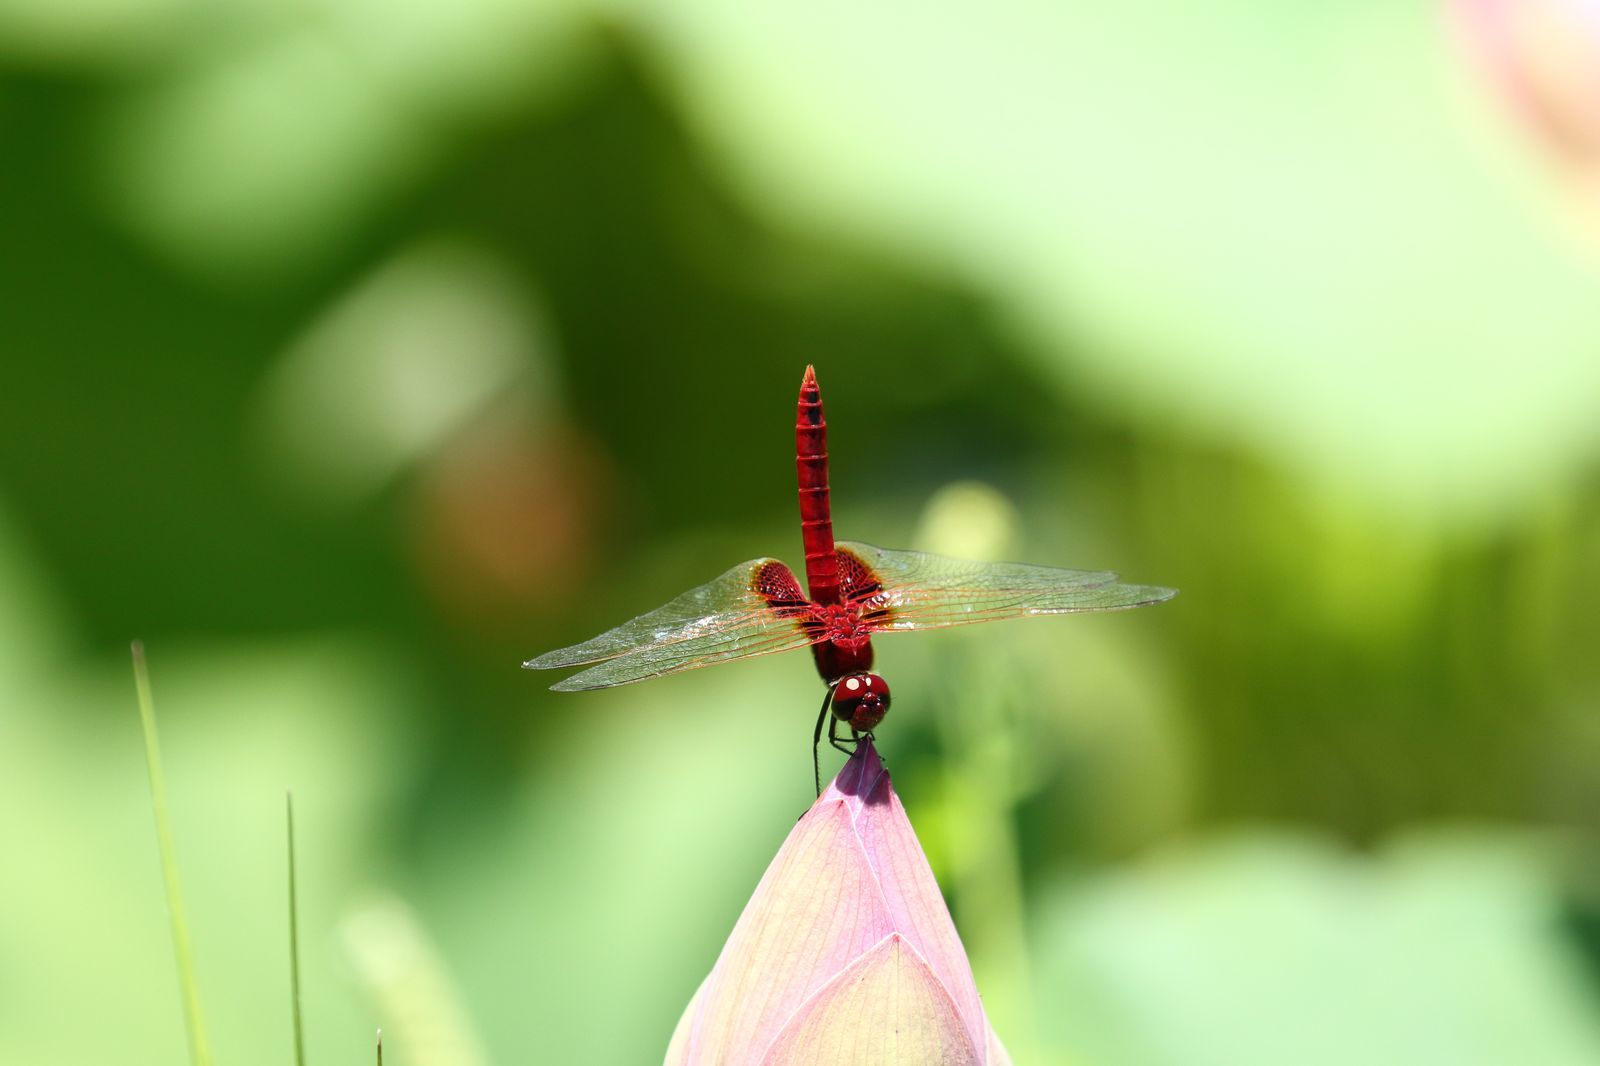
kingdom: Animalia
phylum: Arthropoda
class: Insecta
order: Odonata
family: Libellulidae
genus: Urothemis
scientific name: Urothemis signata
